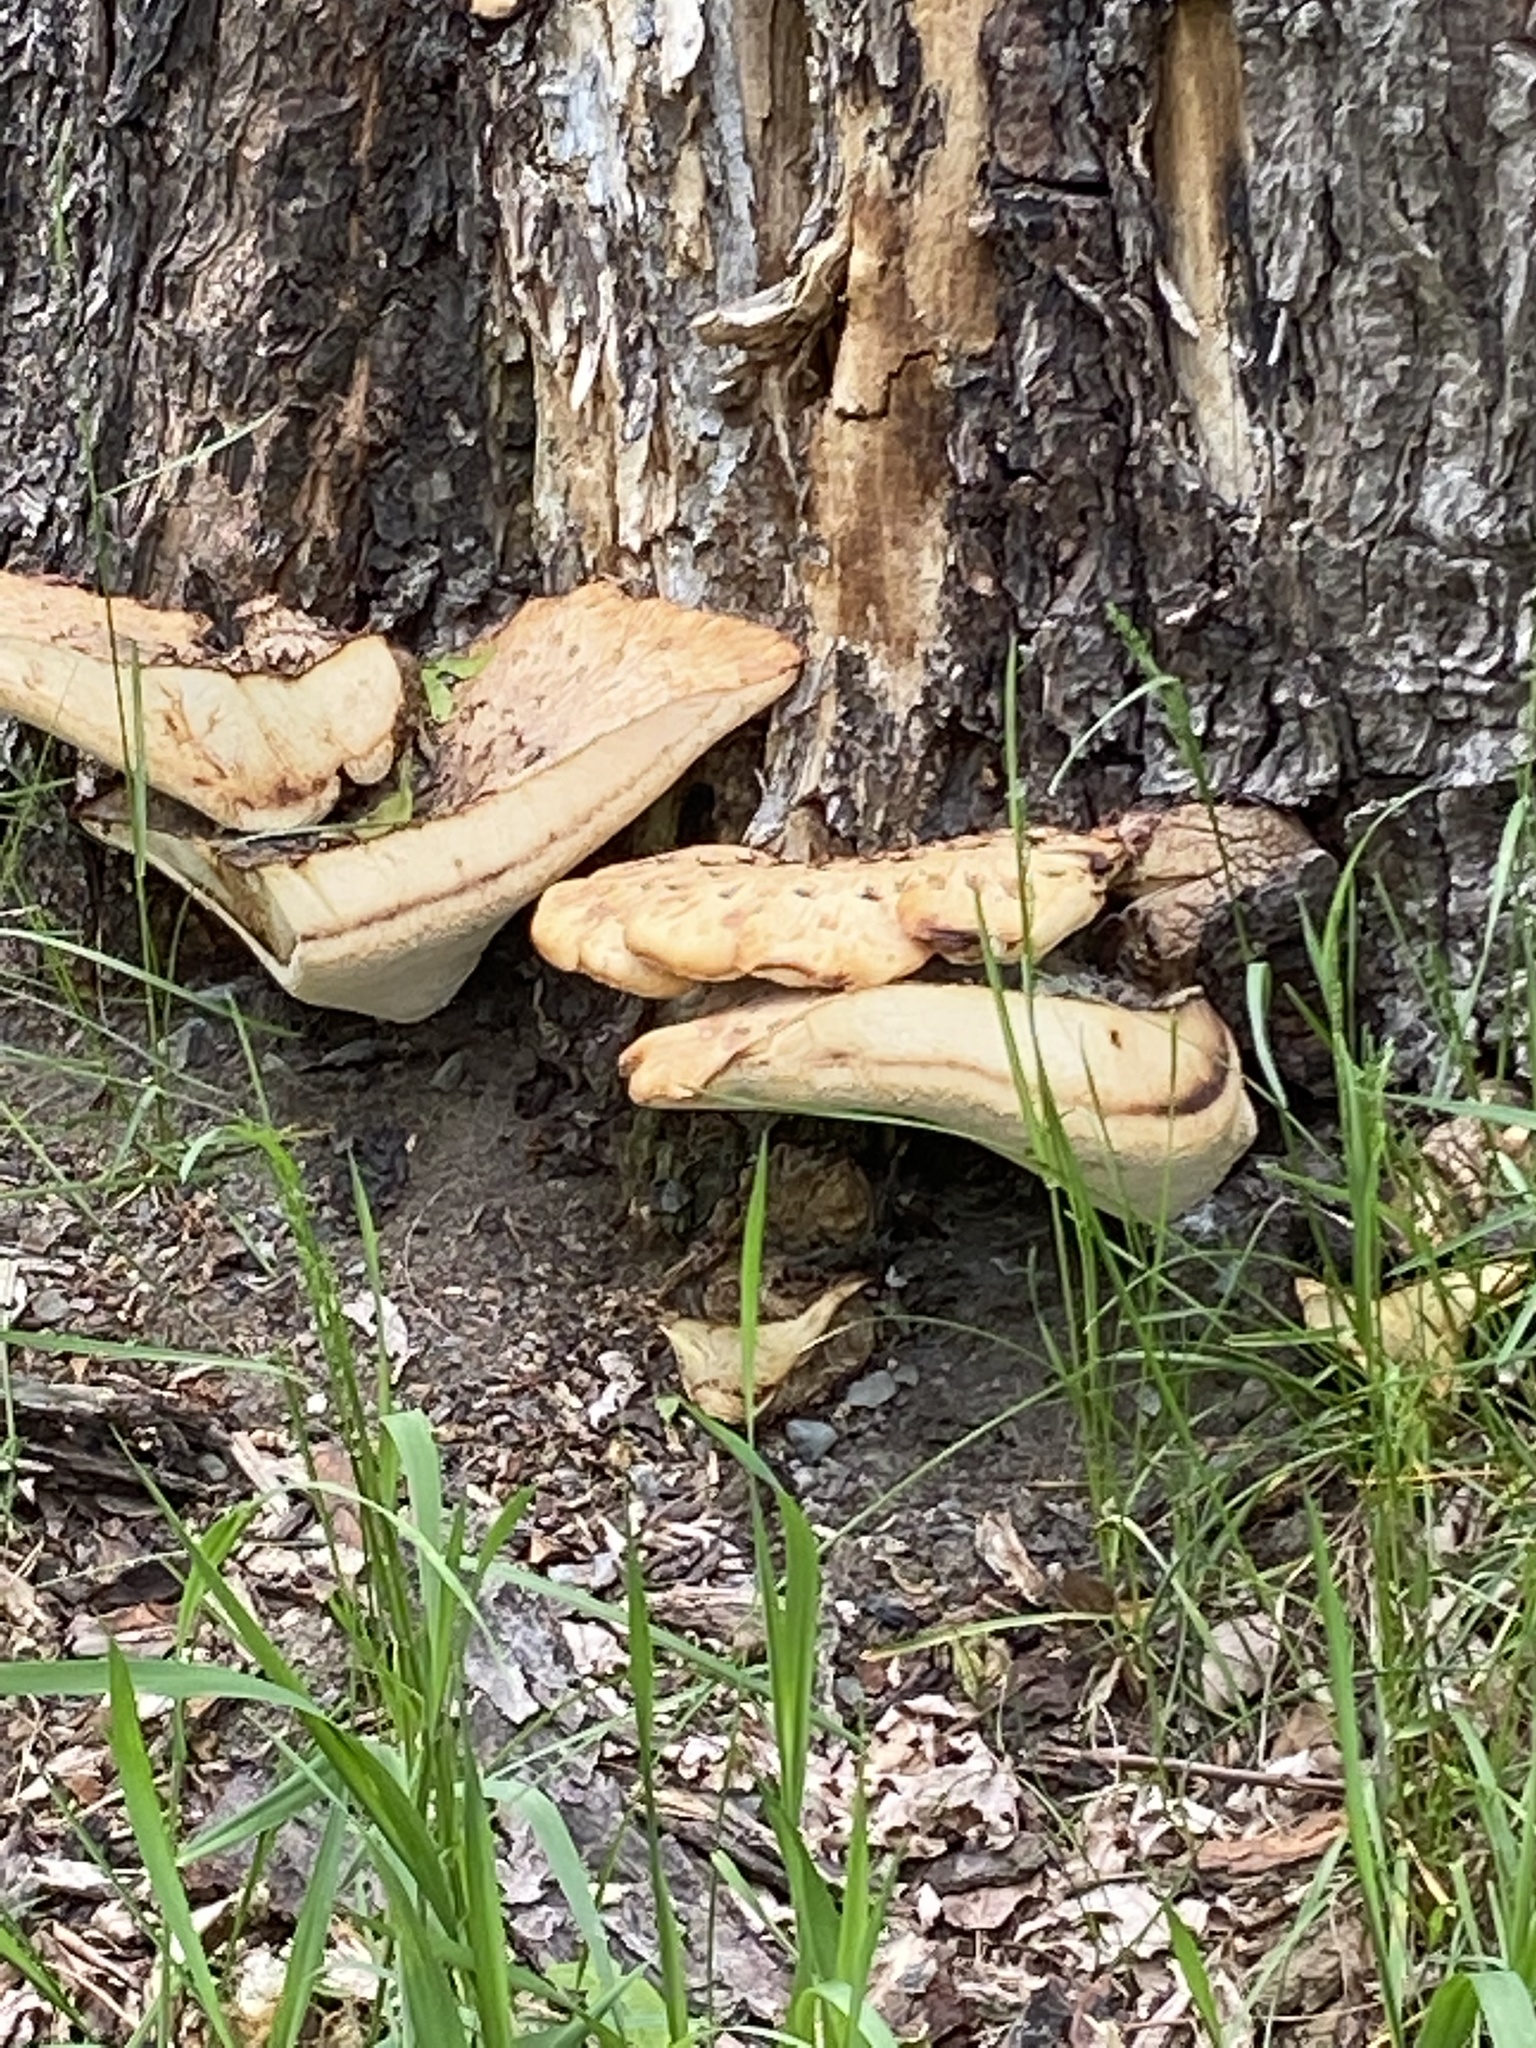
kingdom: Fungi
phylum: Basidiomycota
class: Agaricomycetes
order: Polyporales
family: Polyporaceae
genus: Cerioporus
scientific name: Cerioporus squamosus
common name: Dryad's saddle
